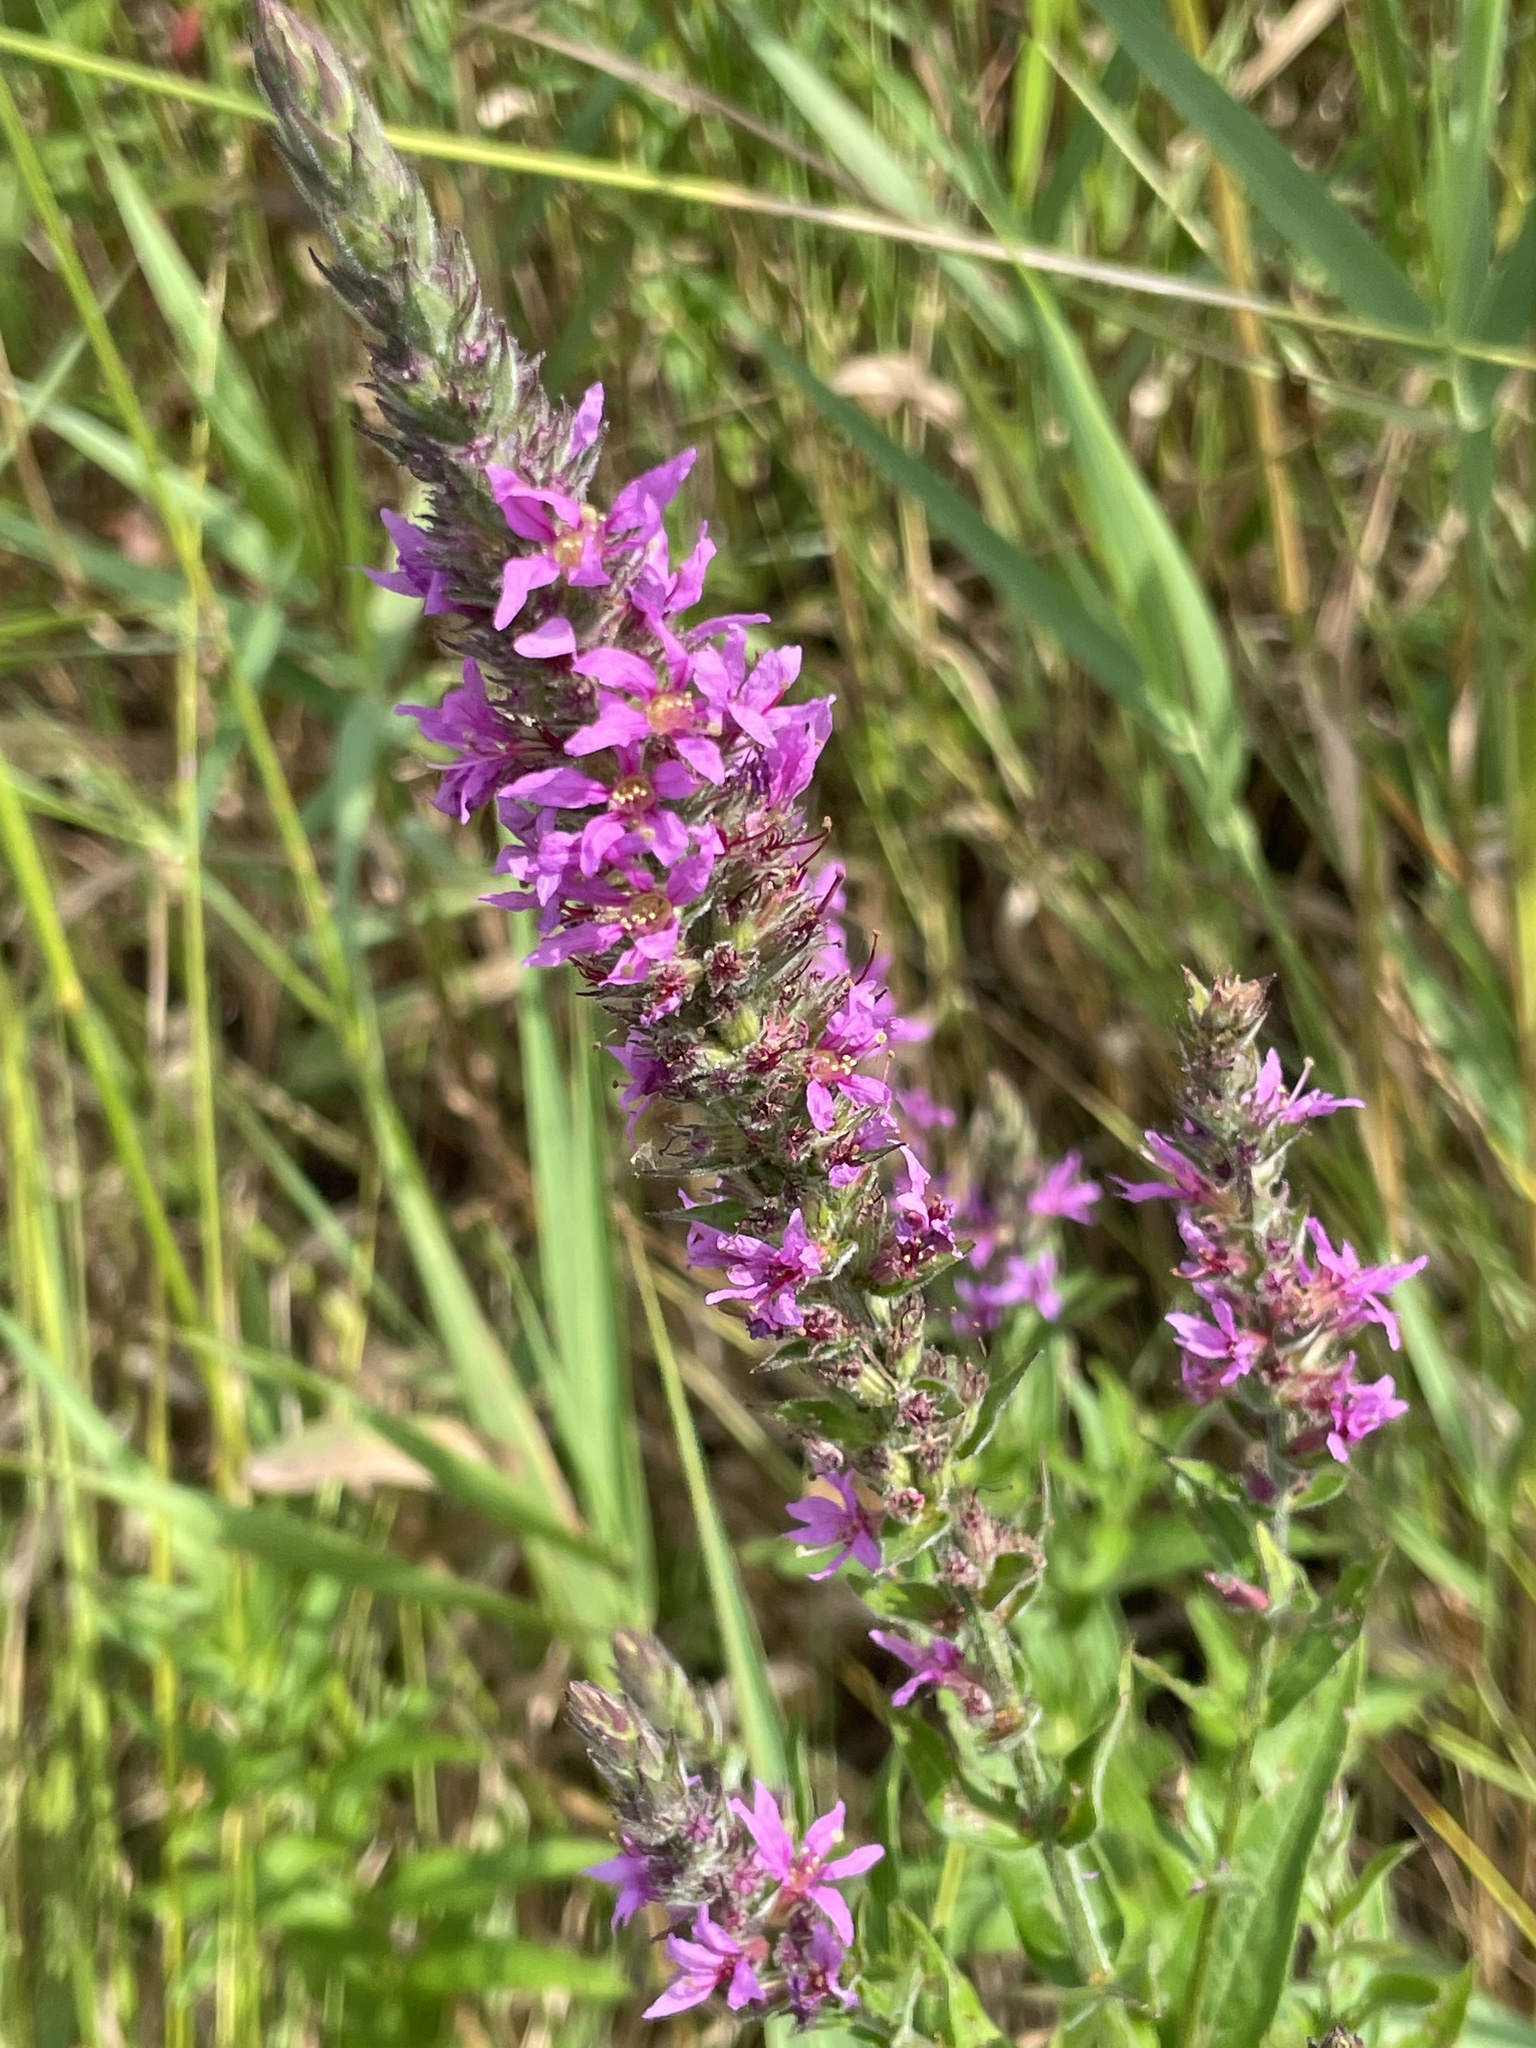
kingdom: Plantae
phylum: Tracheophyta
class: Magnoliopsida
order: Myrtales
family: Lythraceae
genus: Lythrum
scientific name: Lythrum salicaria
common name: Purple loosestrife
